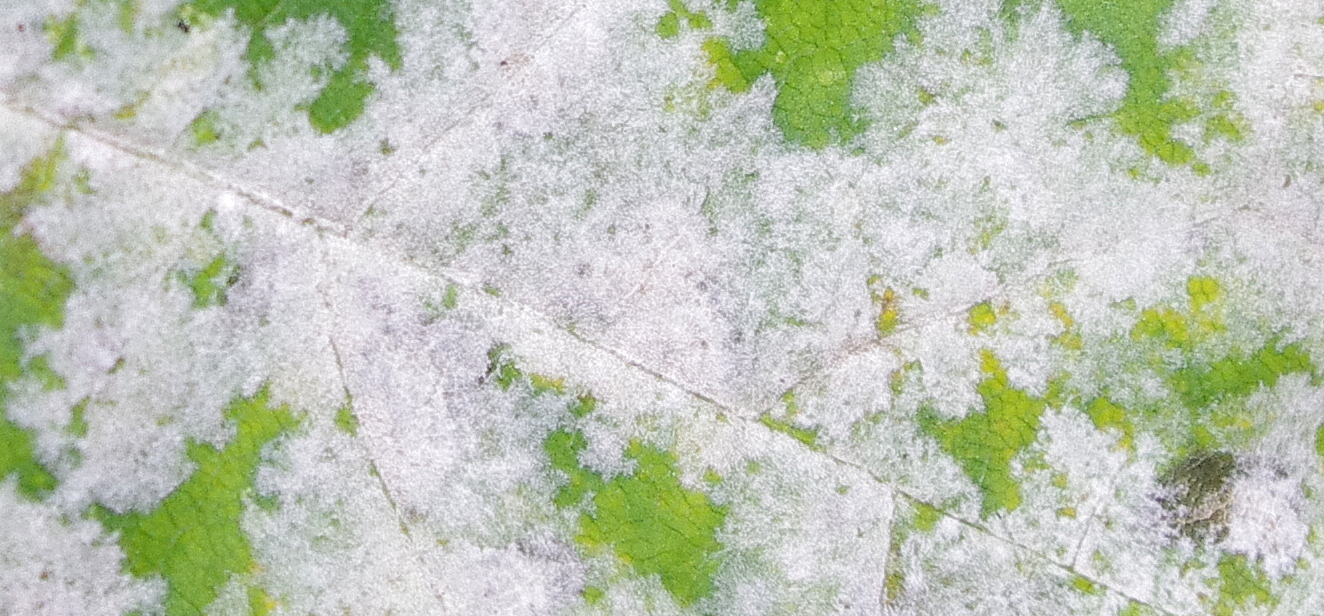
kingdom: Fungi
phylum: Ascomycota
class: Leotiomycetes
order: Helotiales
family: Erysiphaceae
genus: Sawadaea
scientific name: Sawadaea tulasnei
